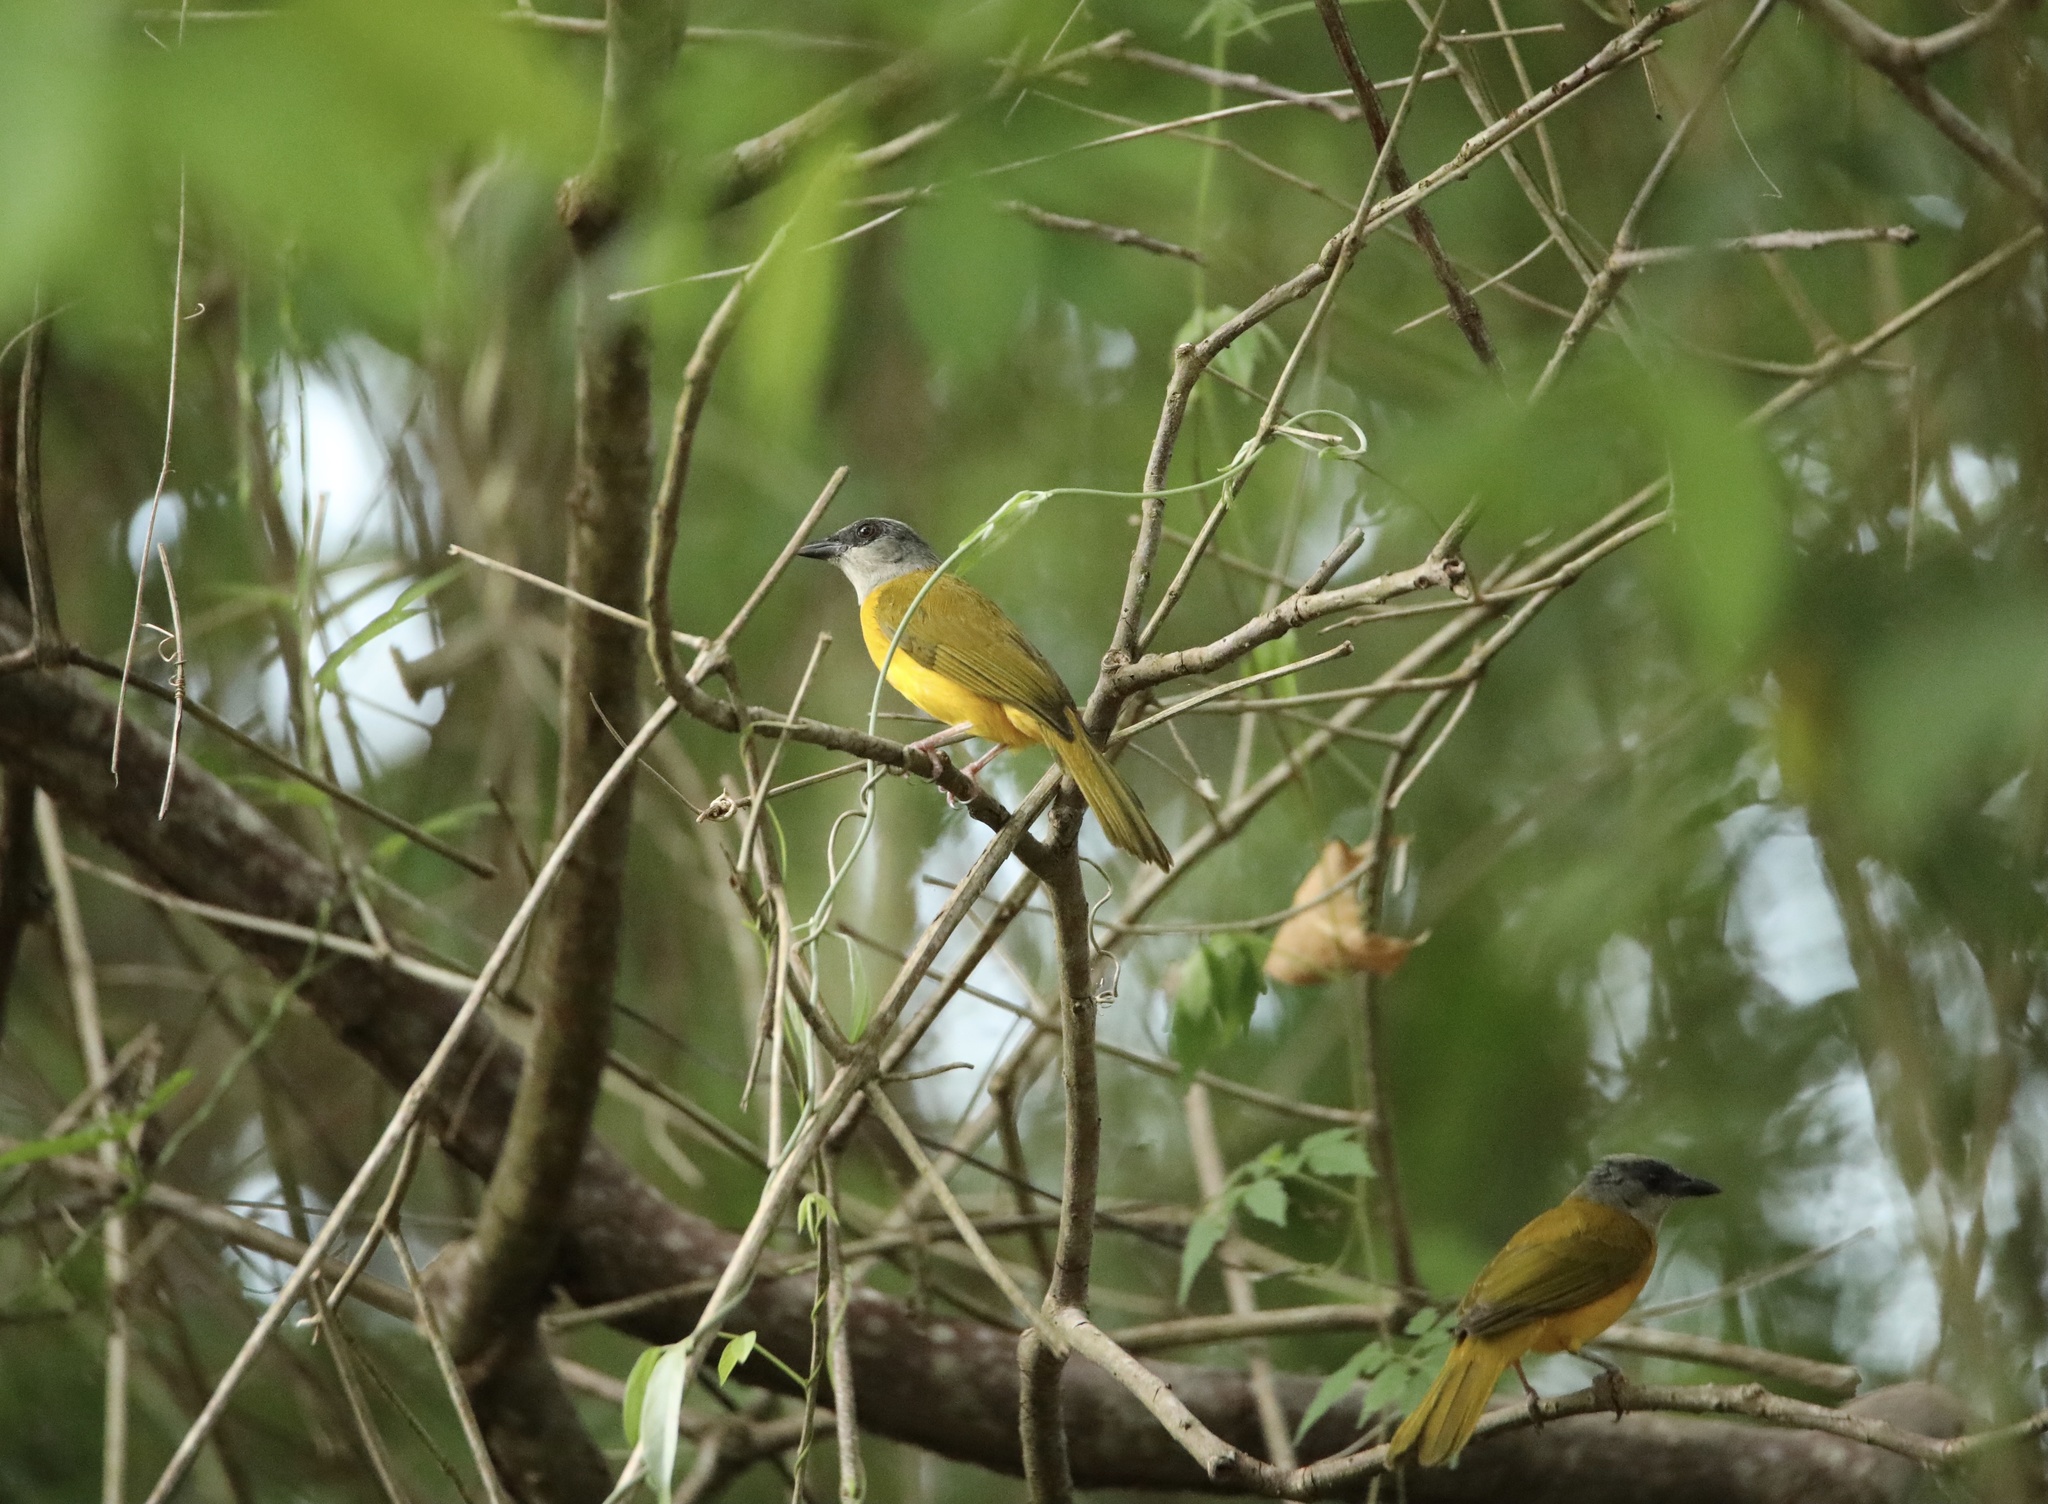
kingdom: Animalia
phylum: Chordata
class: Aves
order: Passeriformes
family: Thraupidae
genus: Eucometis
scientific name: Eucometis penicillata
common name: Grey-headed tanager
